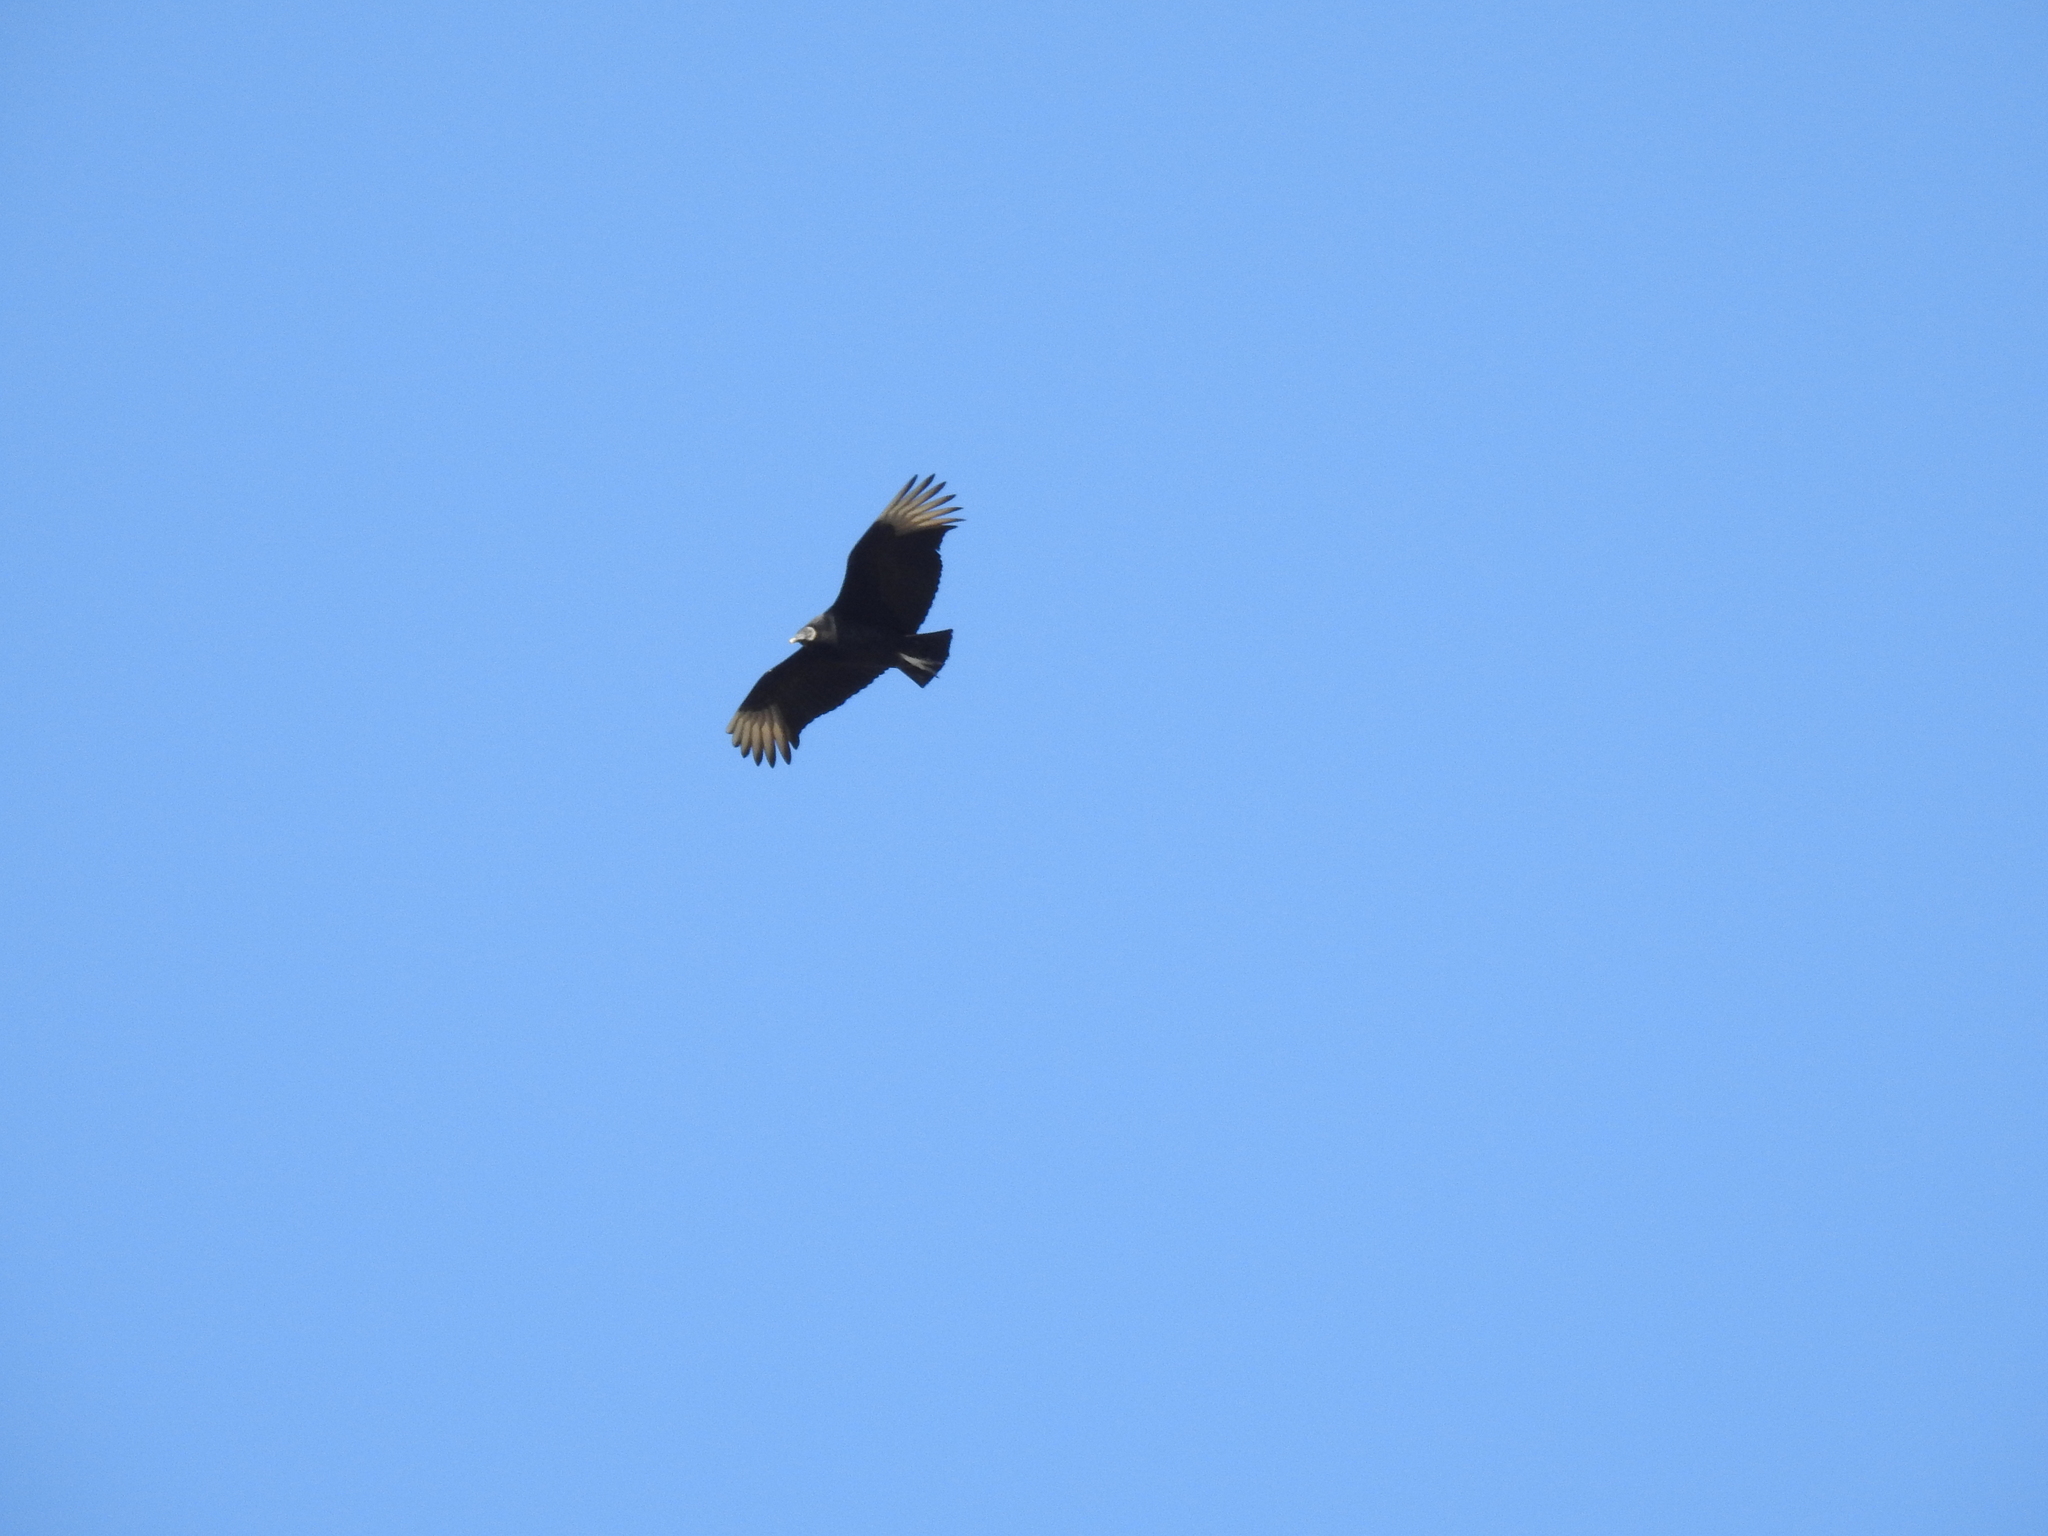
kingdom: Animalia
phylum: Chordata
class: Aves
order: Accipitriformes
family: Cathartidae
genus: Coragyps
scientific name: Coragyps atratus
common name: Black vulture
